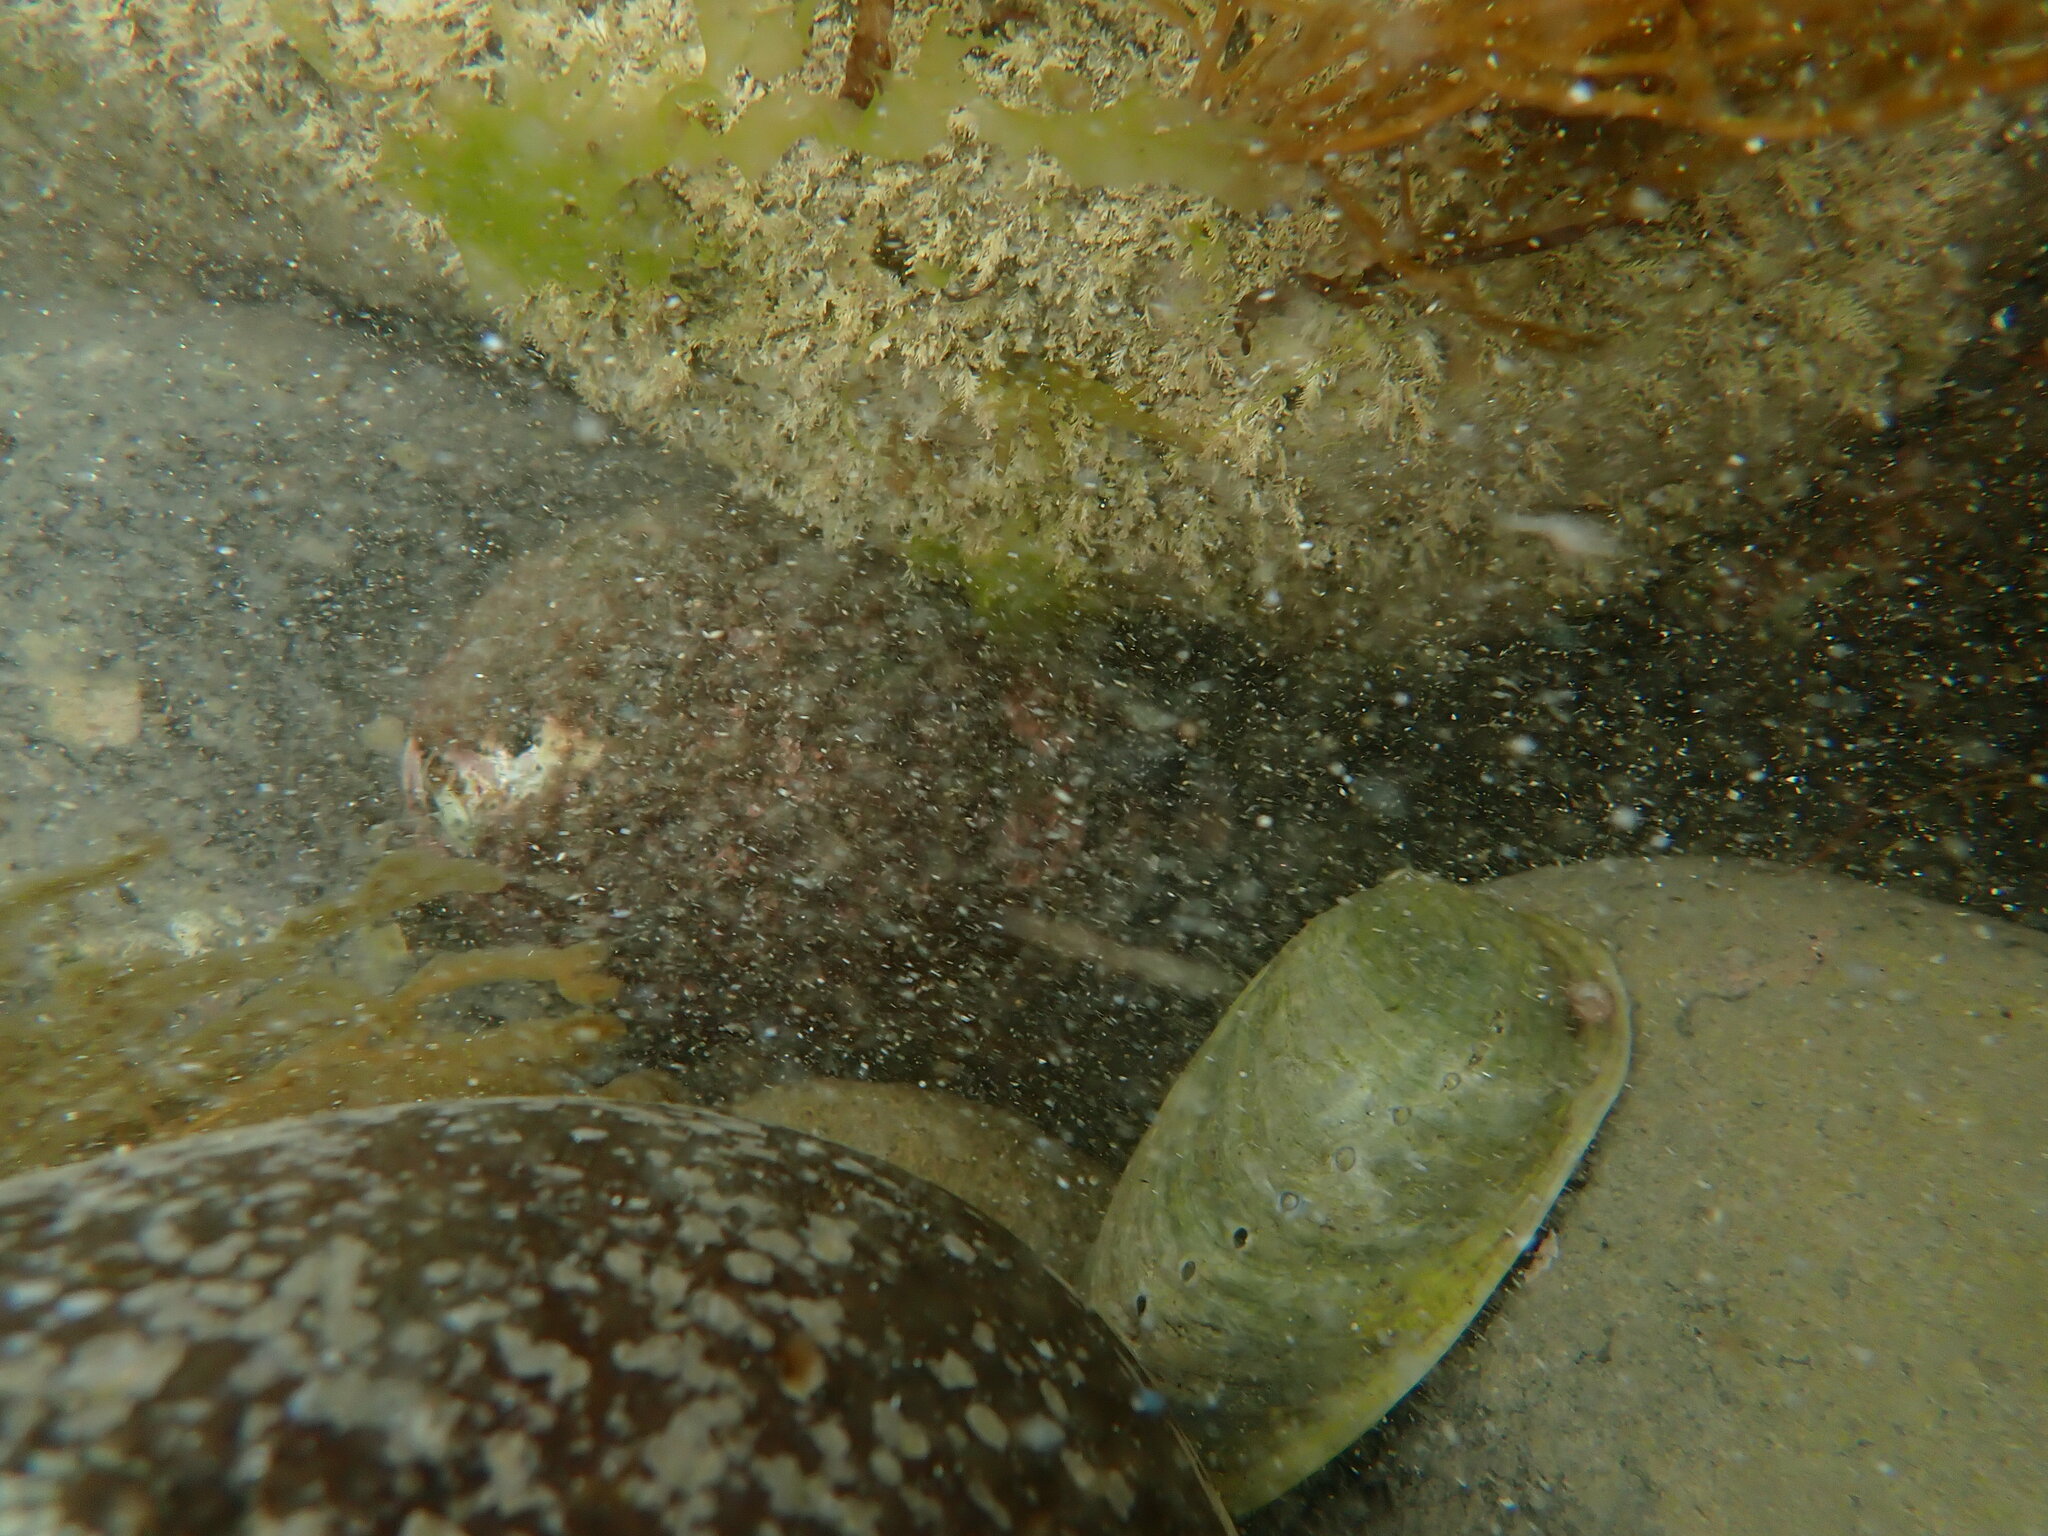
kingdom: Animalia
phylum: Mollusca
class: Gastropoda
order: Lepetellida
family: Haliotidae
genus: Haliotis
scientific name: Haliotis iris
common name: Abalone
